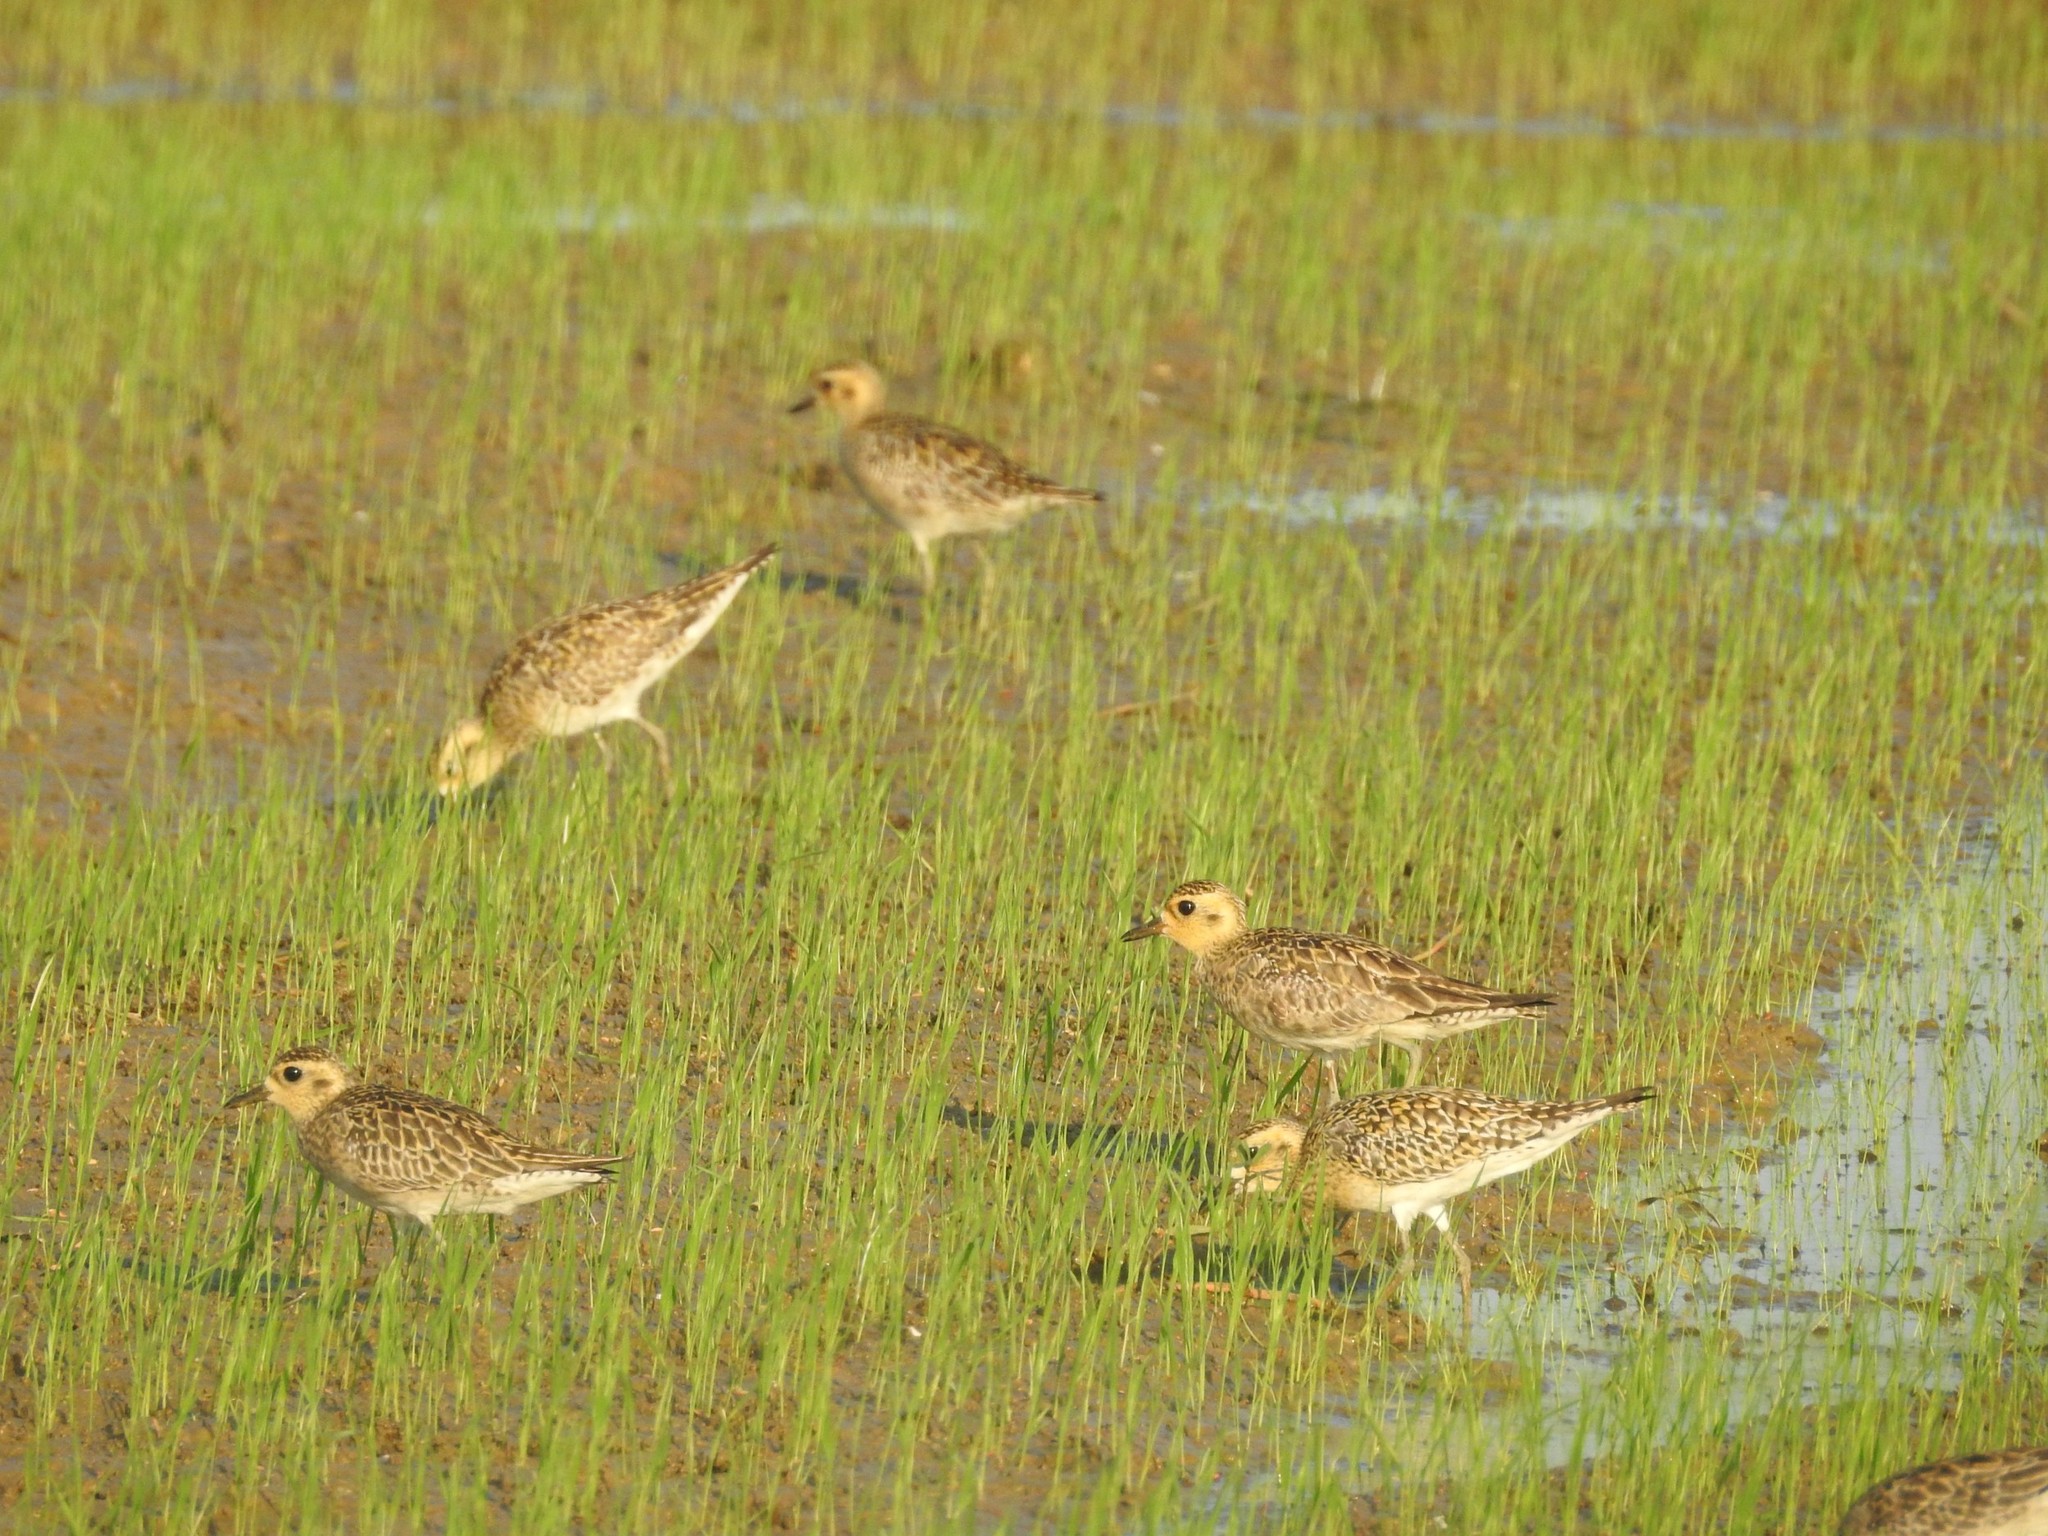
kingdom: Animalia
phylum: Chordata
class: Aves
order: Charadriiformes
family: Charadriidae
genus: Pluvialis
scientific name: Pluvialis fulva
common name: Pacific golden plover
